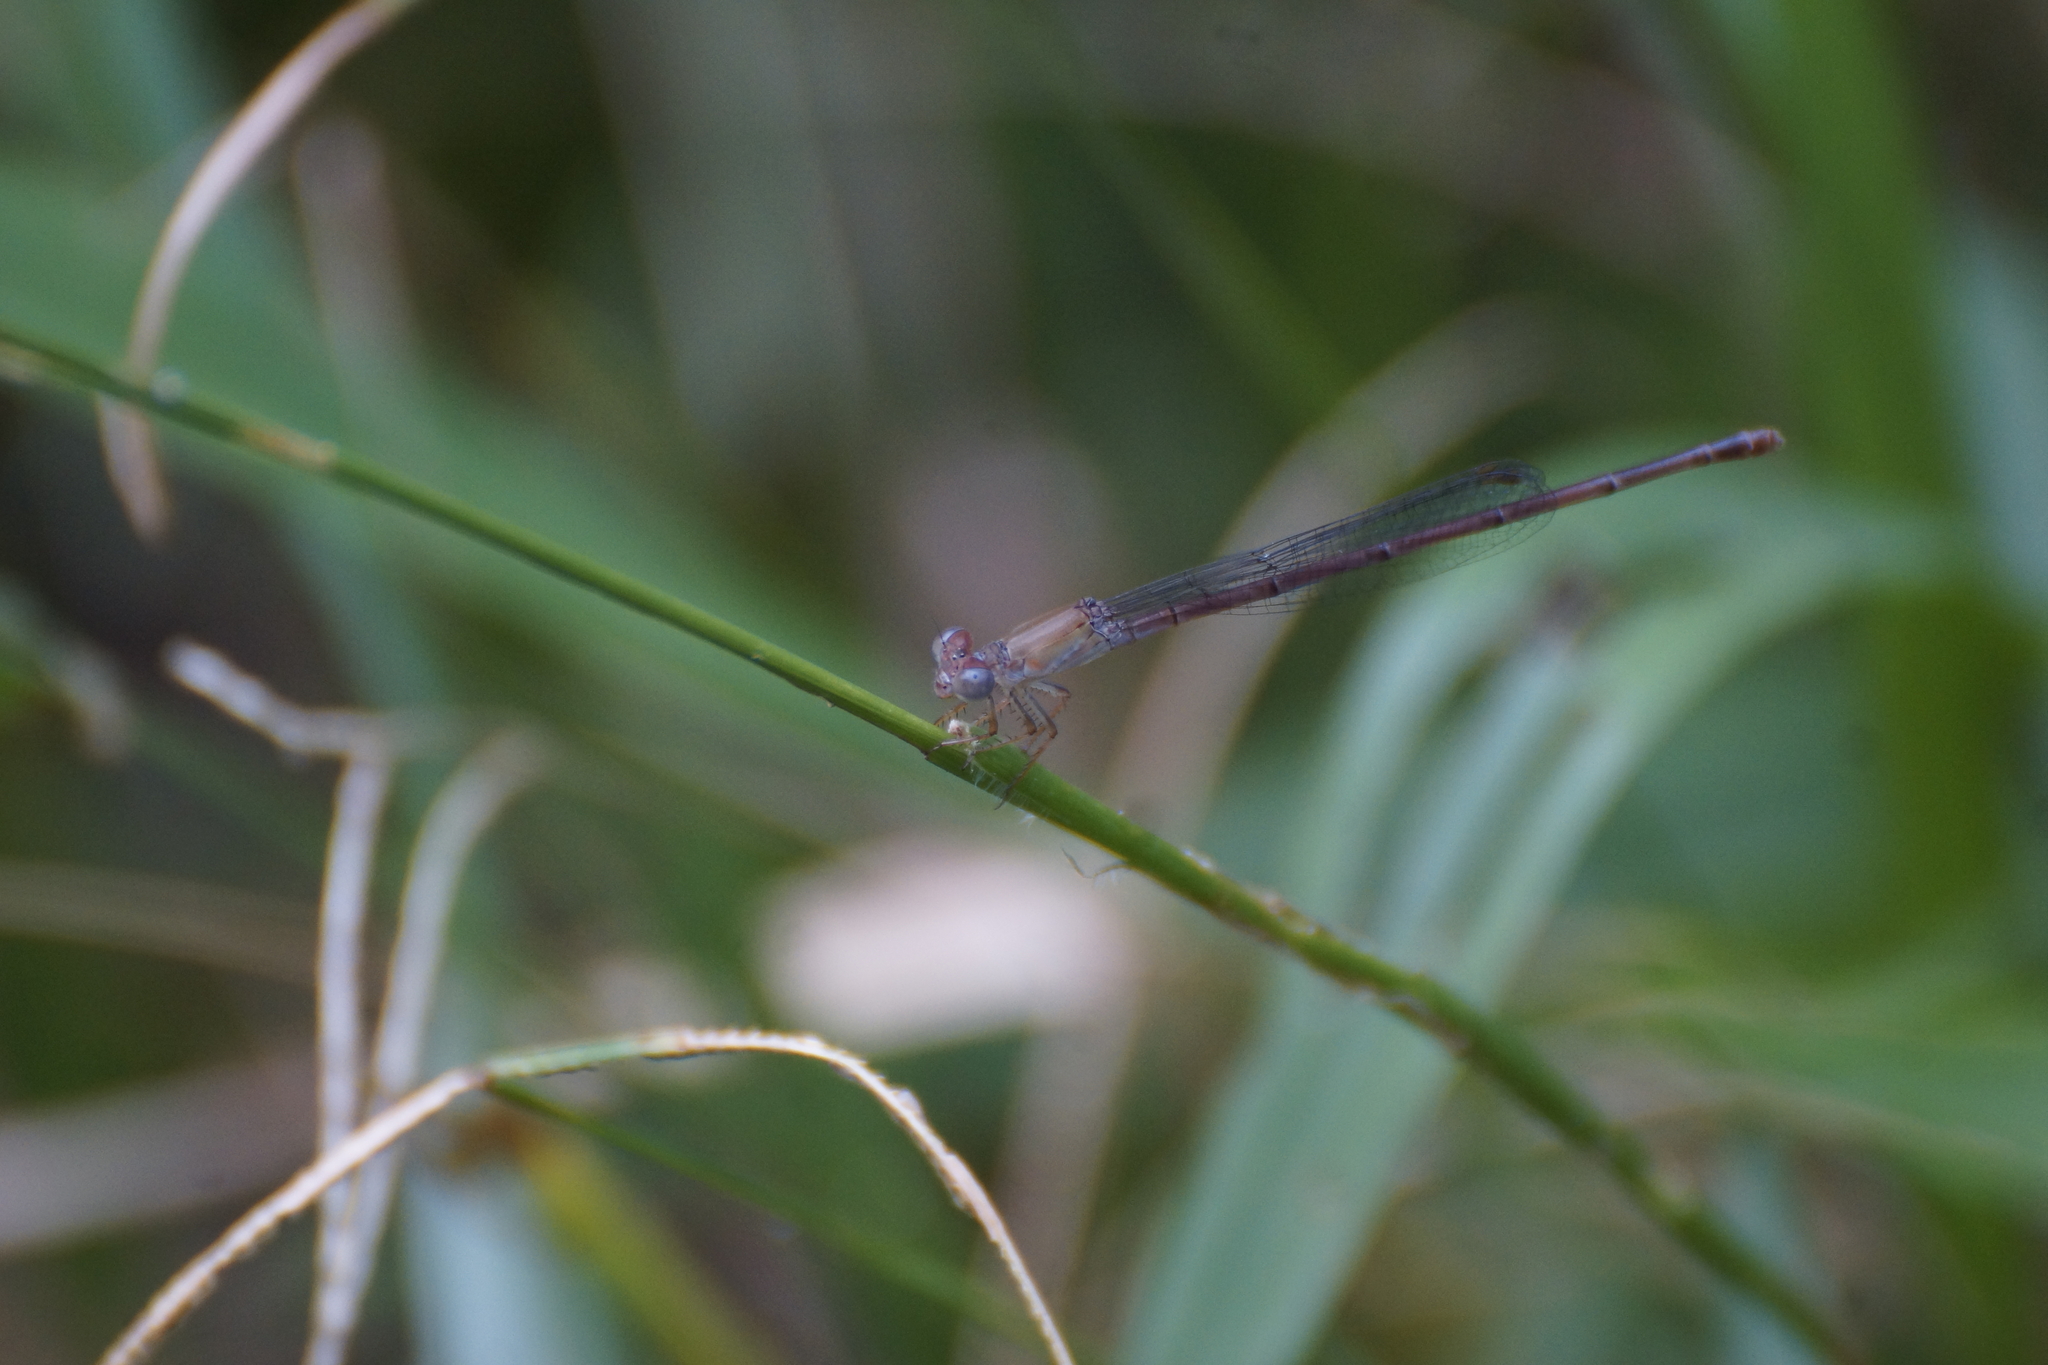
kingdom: Animalia
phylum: Arthropoda
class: Insecta
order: Odonata
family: Coenagrionidae
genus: Ceriagrion
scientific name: Ceriagrion aeruginosum
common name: Redtail
